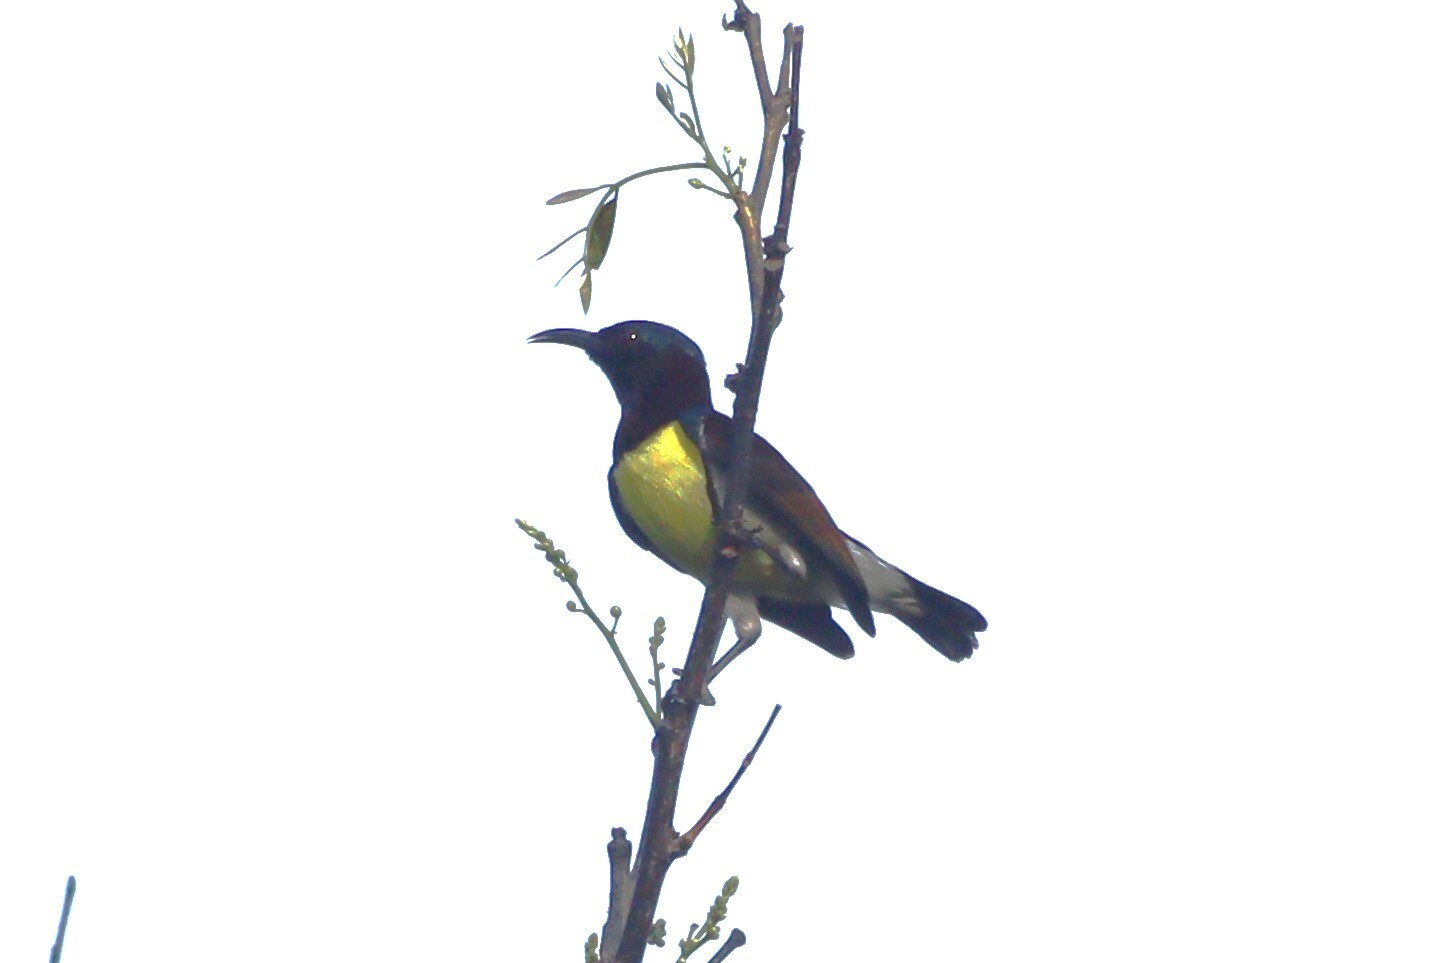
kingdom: Animalia
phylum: Chordata
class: Aves
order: Passeriformes
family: Nectariniidae
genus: Leptocoma
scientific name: Leptocoma zeylonica
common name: Purple-rumped sunbird
